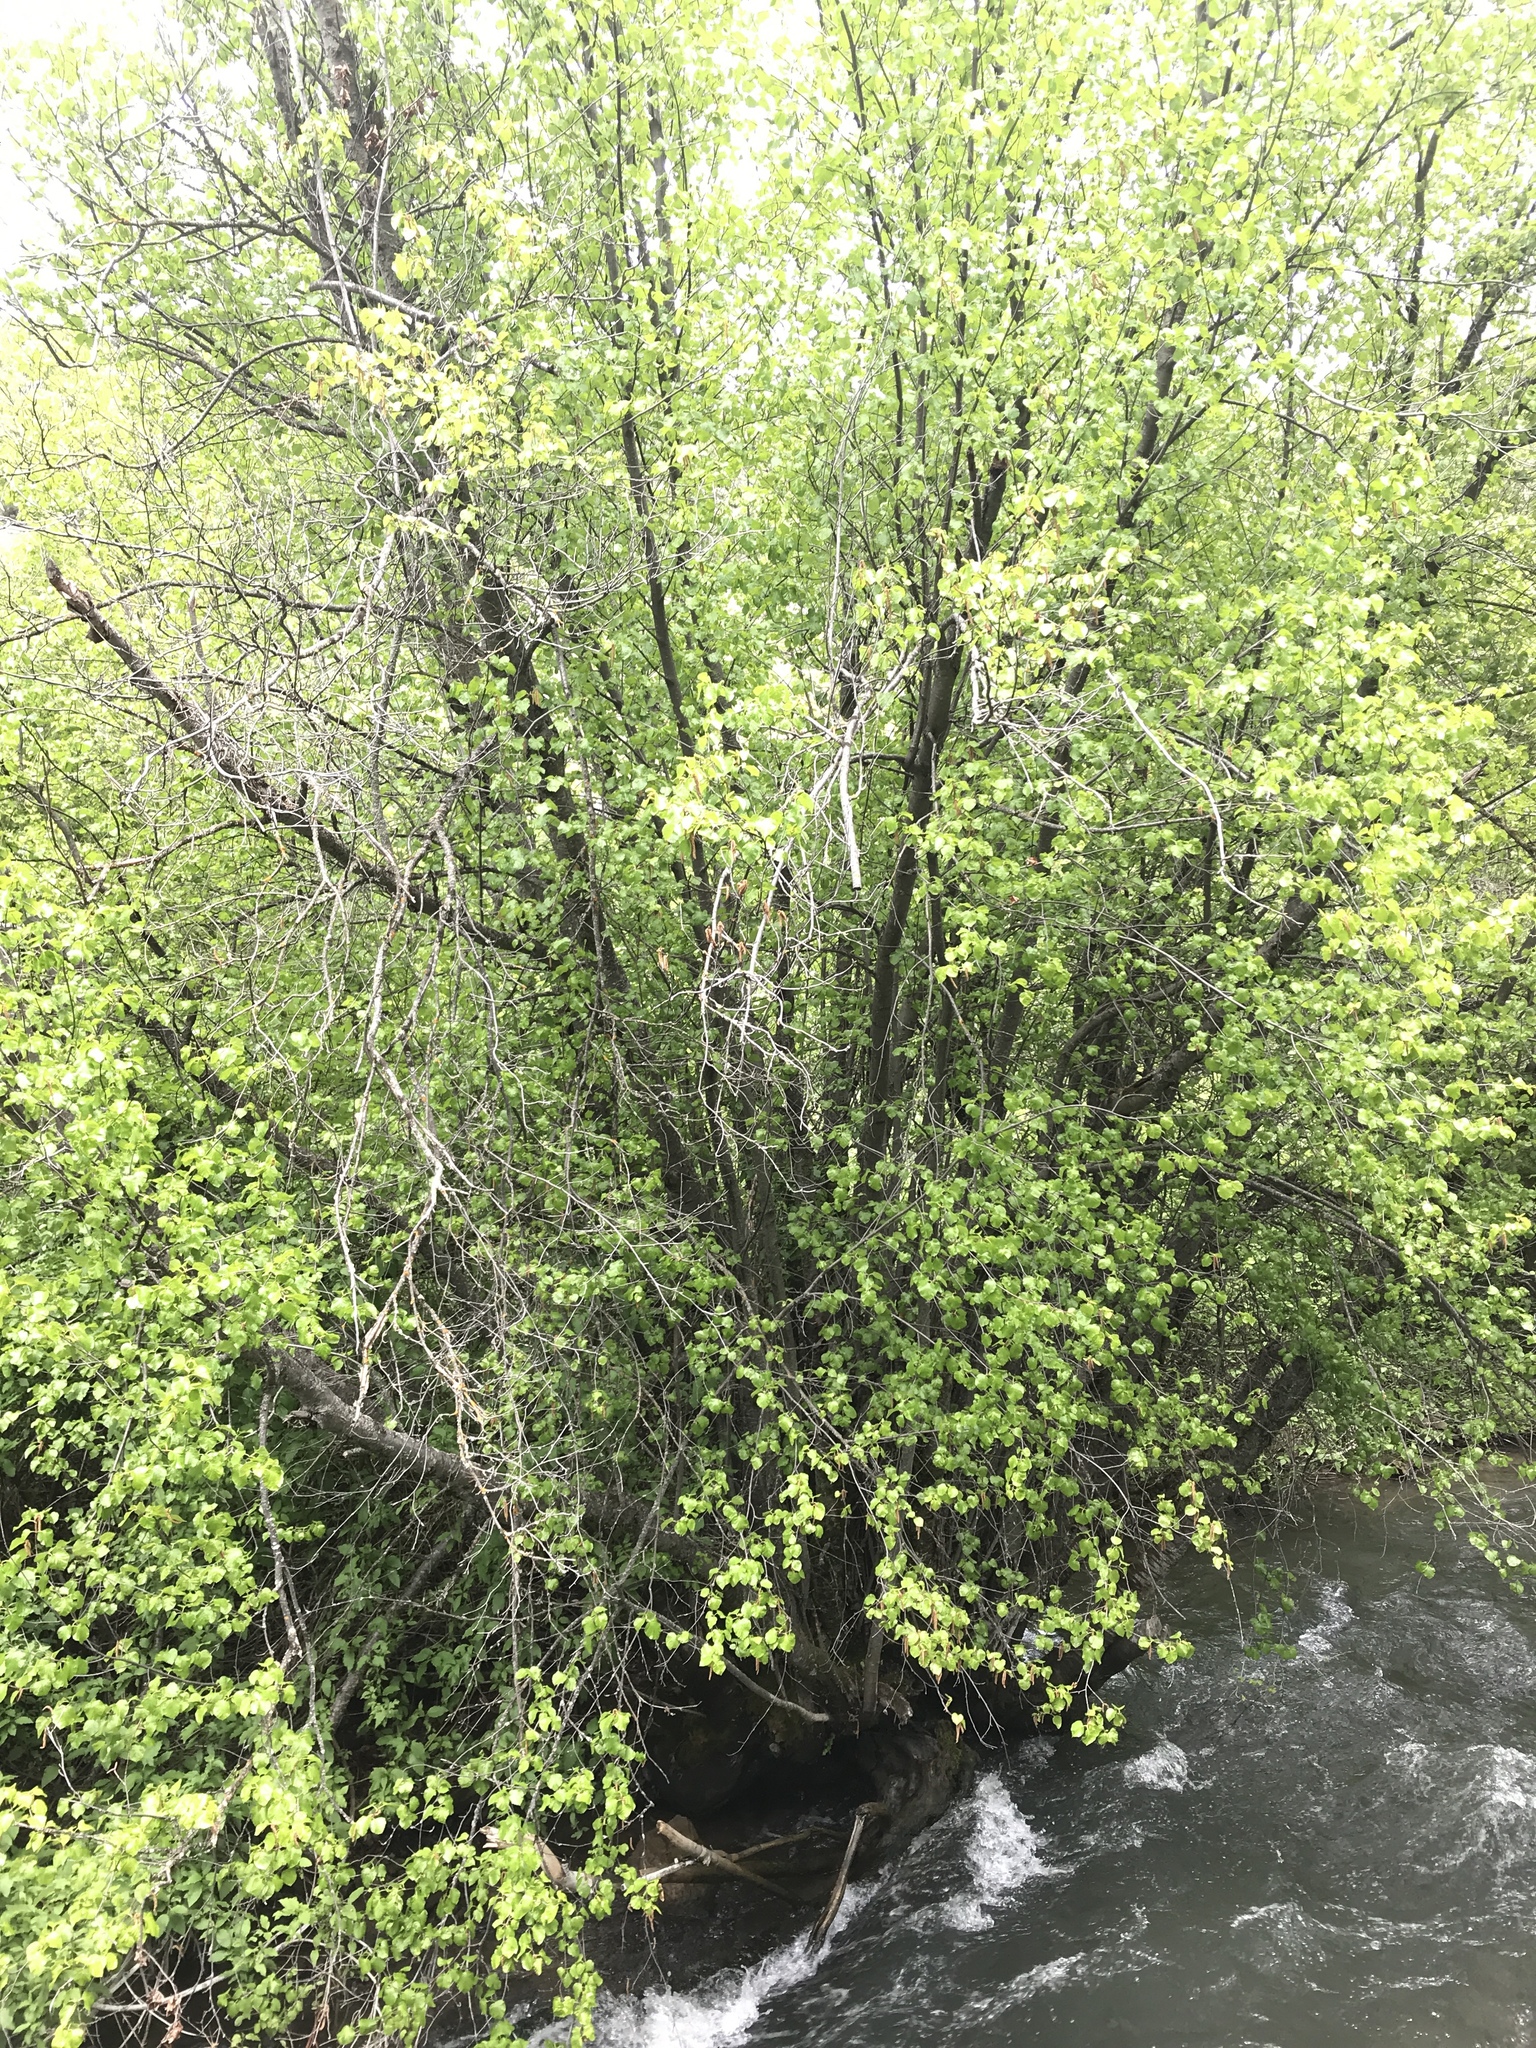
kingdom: Plantae
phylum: Tracheophyta
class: Magnoliopsida
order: Fagales
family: Betulaceae
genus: Betula
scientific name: Betula occidentalis
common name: River birch
